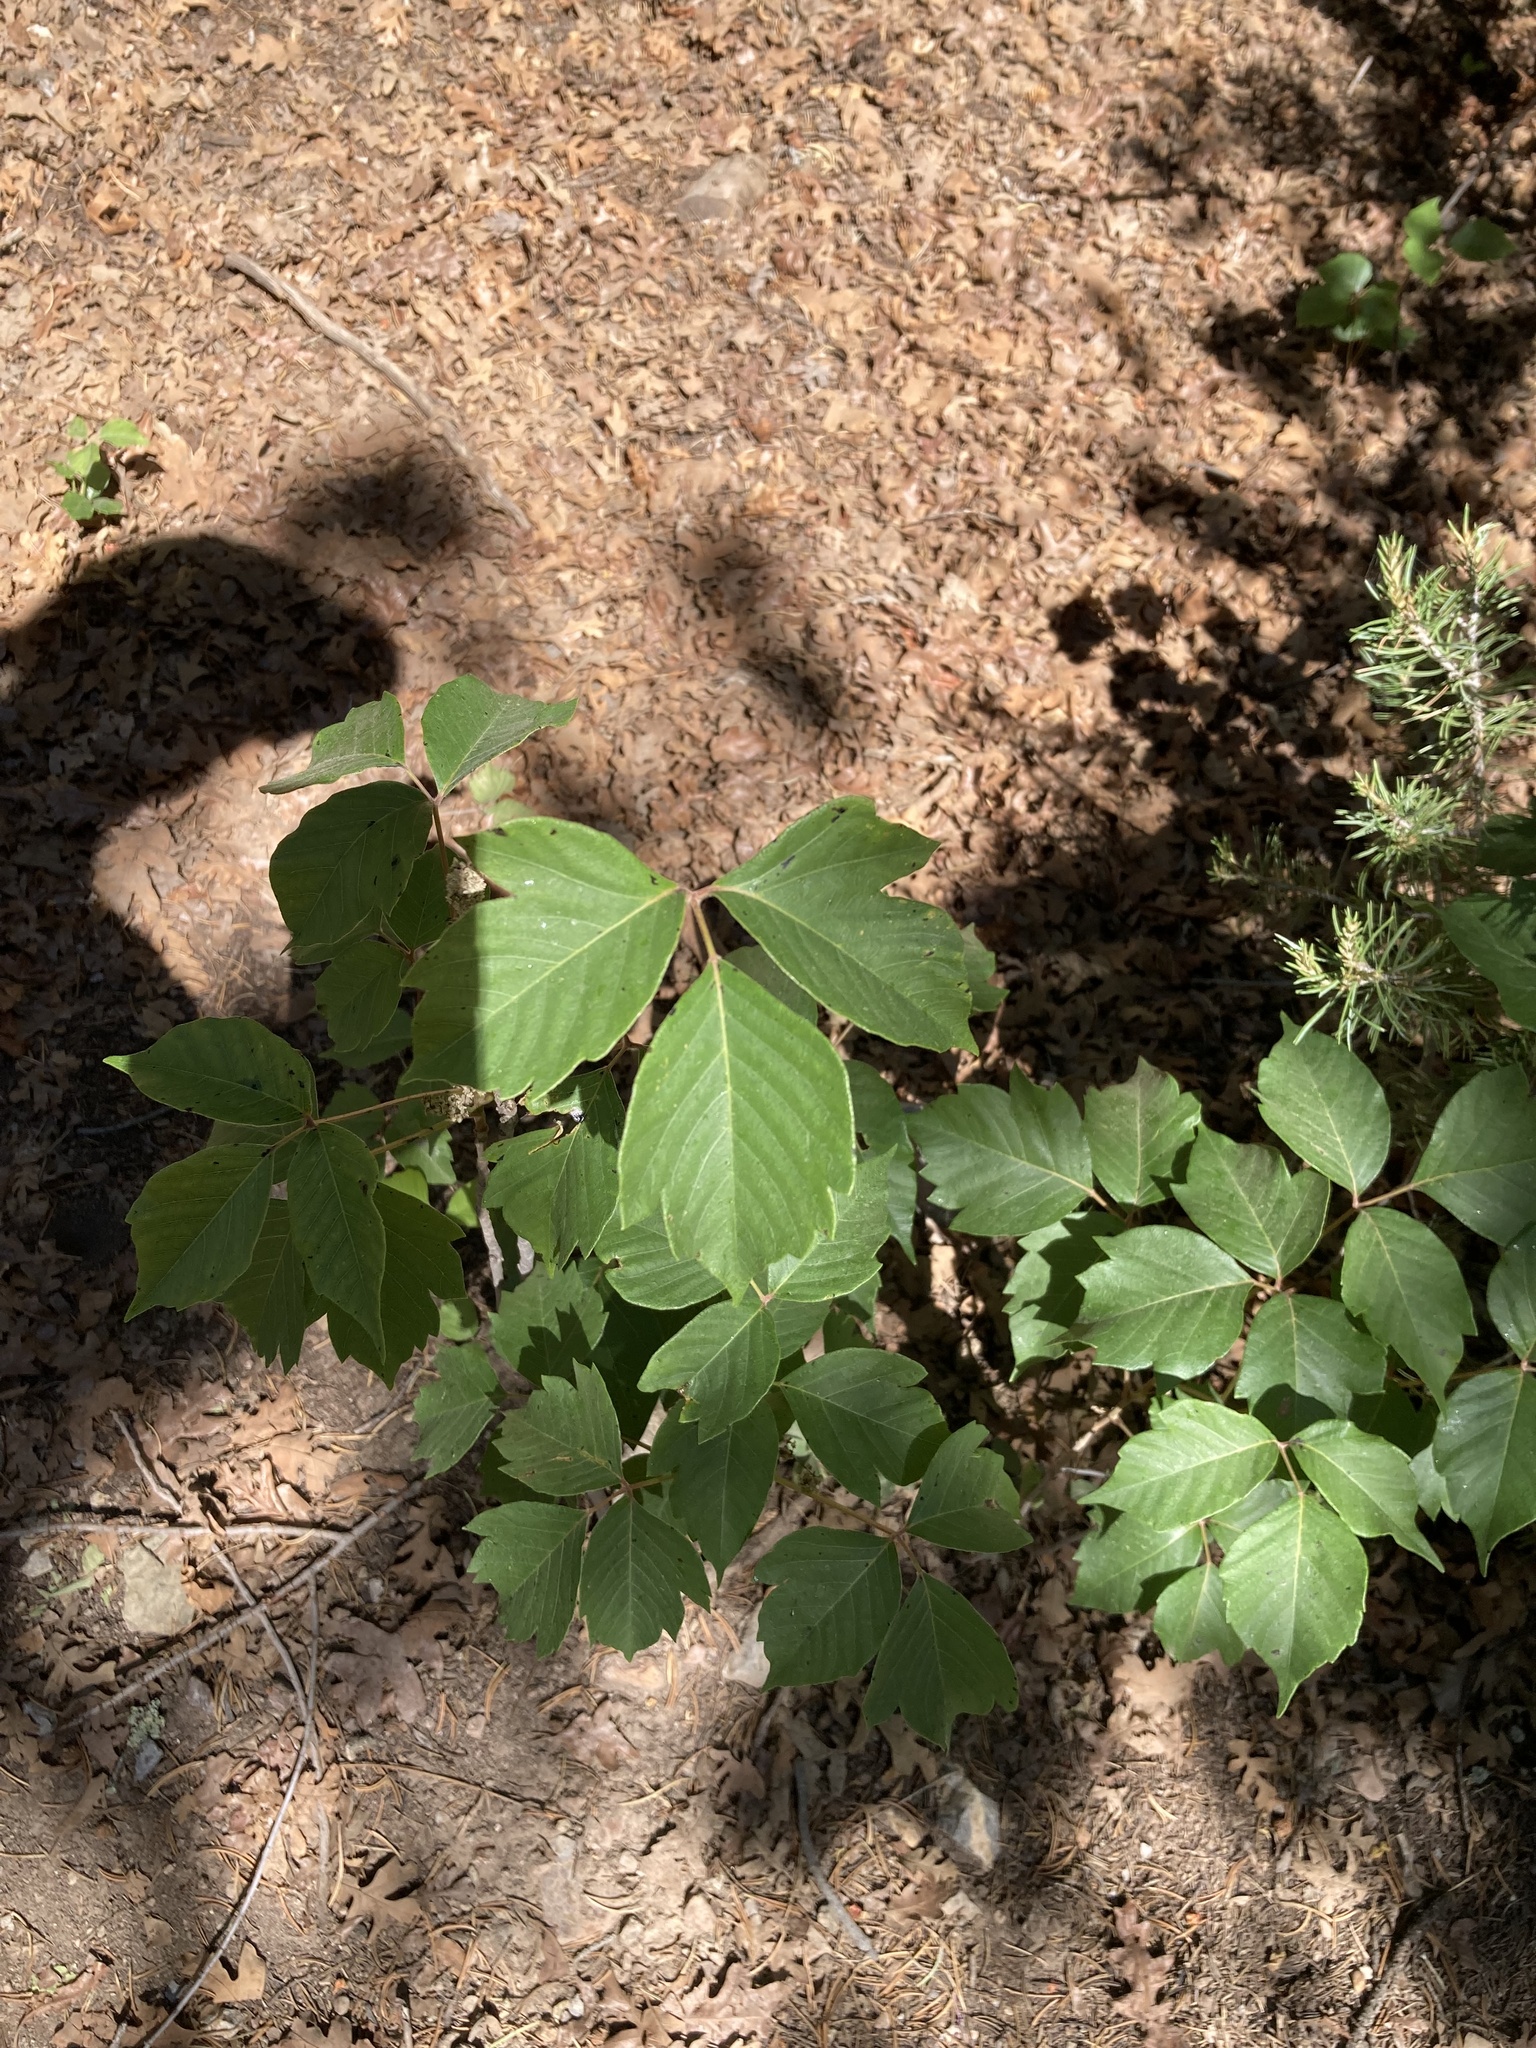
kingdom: Plantae
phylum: Tracheophyta
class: Magnoliopsida
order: Sapindales
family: Anacardiaceae
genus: Toxicodendron
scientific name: Toxicodendron rydbergii
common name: Rydberg's poison-ivy
